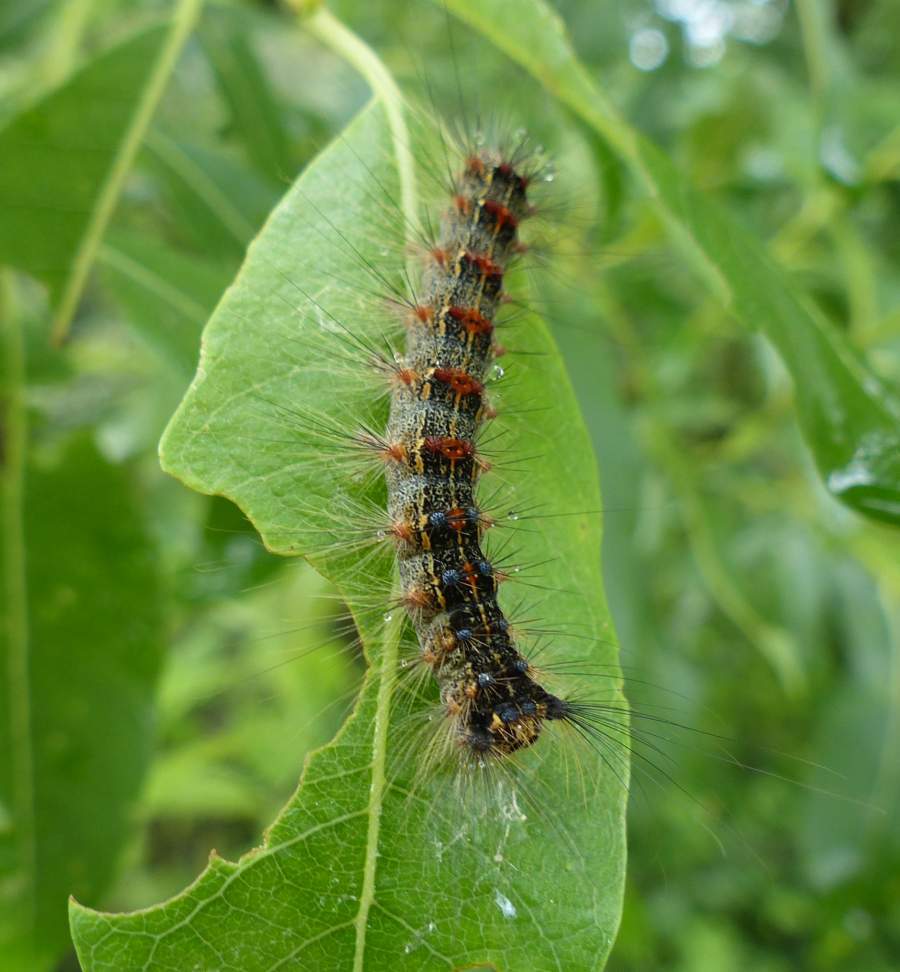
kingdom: Animalia
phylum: Arthropoda
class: Insecta
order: Lepidoptera
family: Erebidae
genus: Lymantria
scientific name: Lymantria dispar
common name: Gypsy moth
